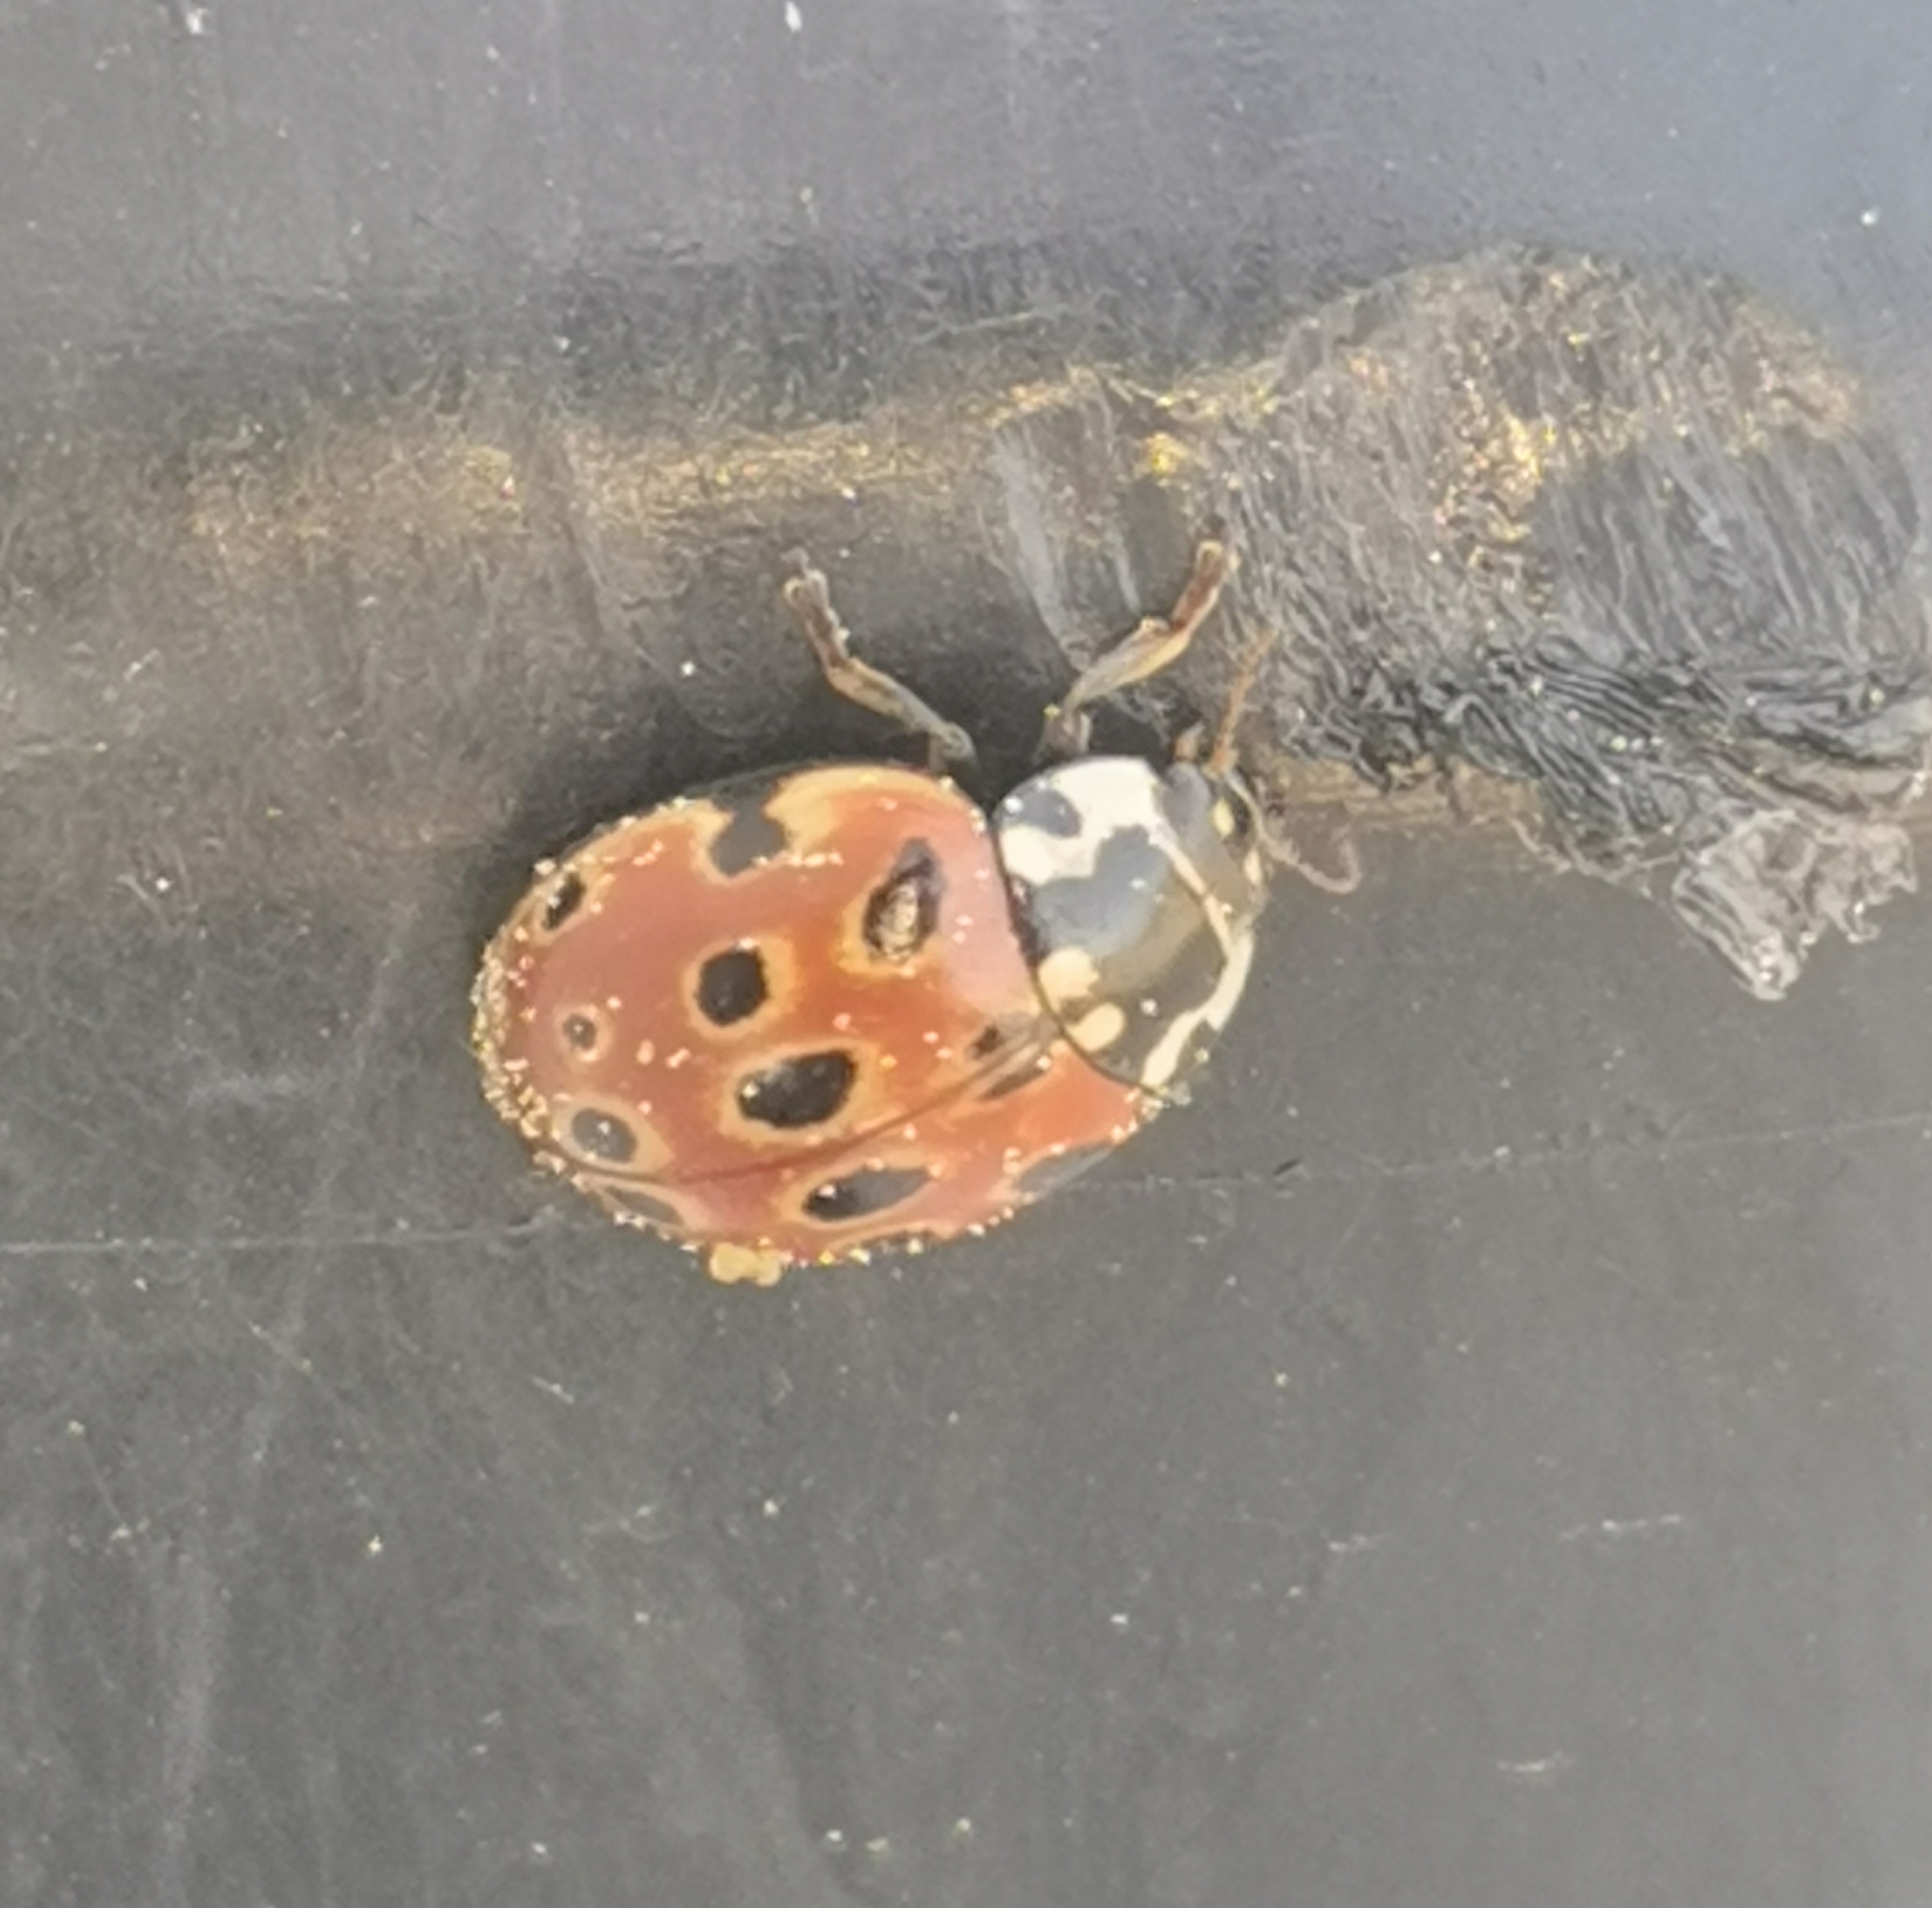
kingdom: Animalia
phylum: Arthropoda
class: Insecta
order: Coleoptera
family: Coccinellidae
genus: Anatis
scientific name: Anatis ocellata
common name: Eyed ladybird
